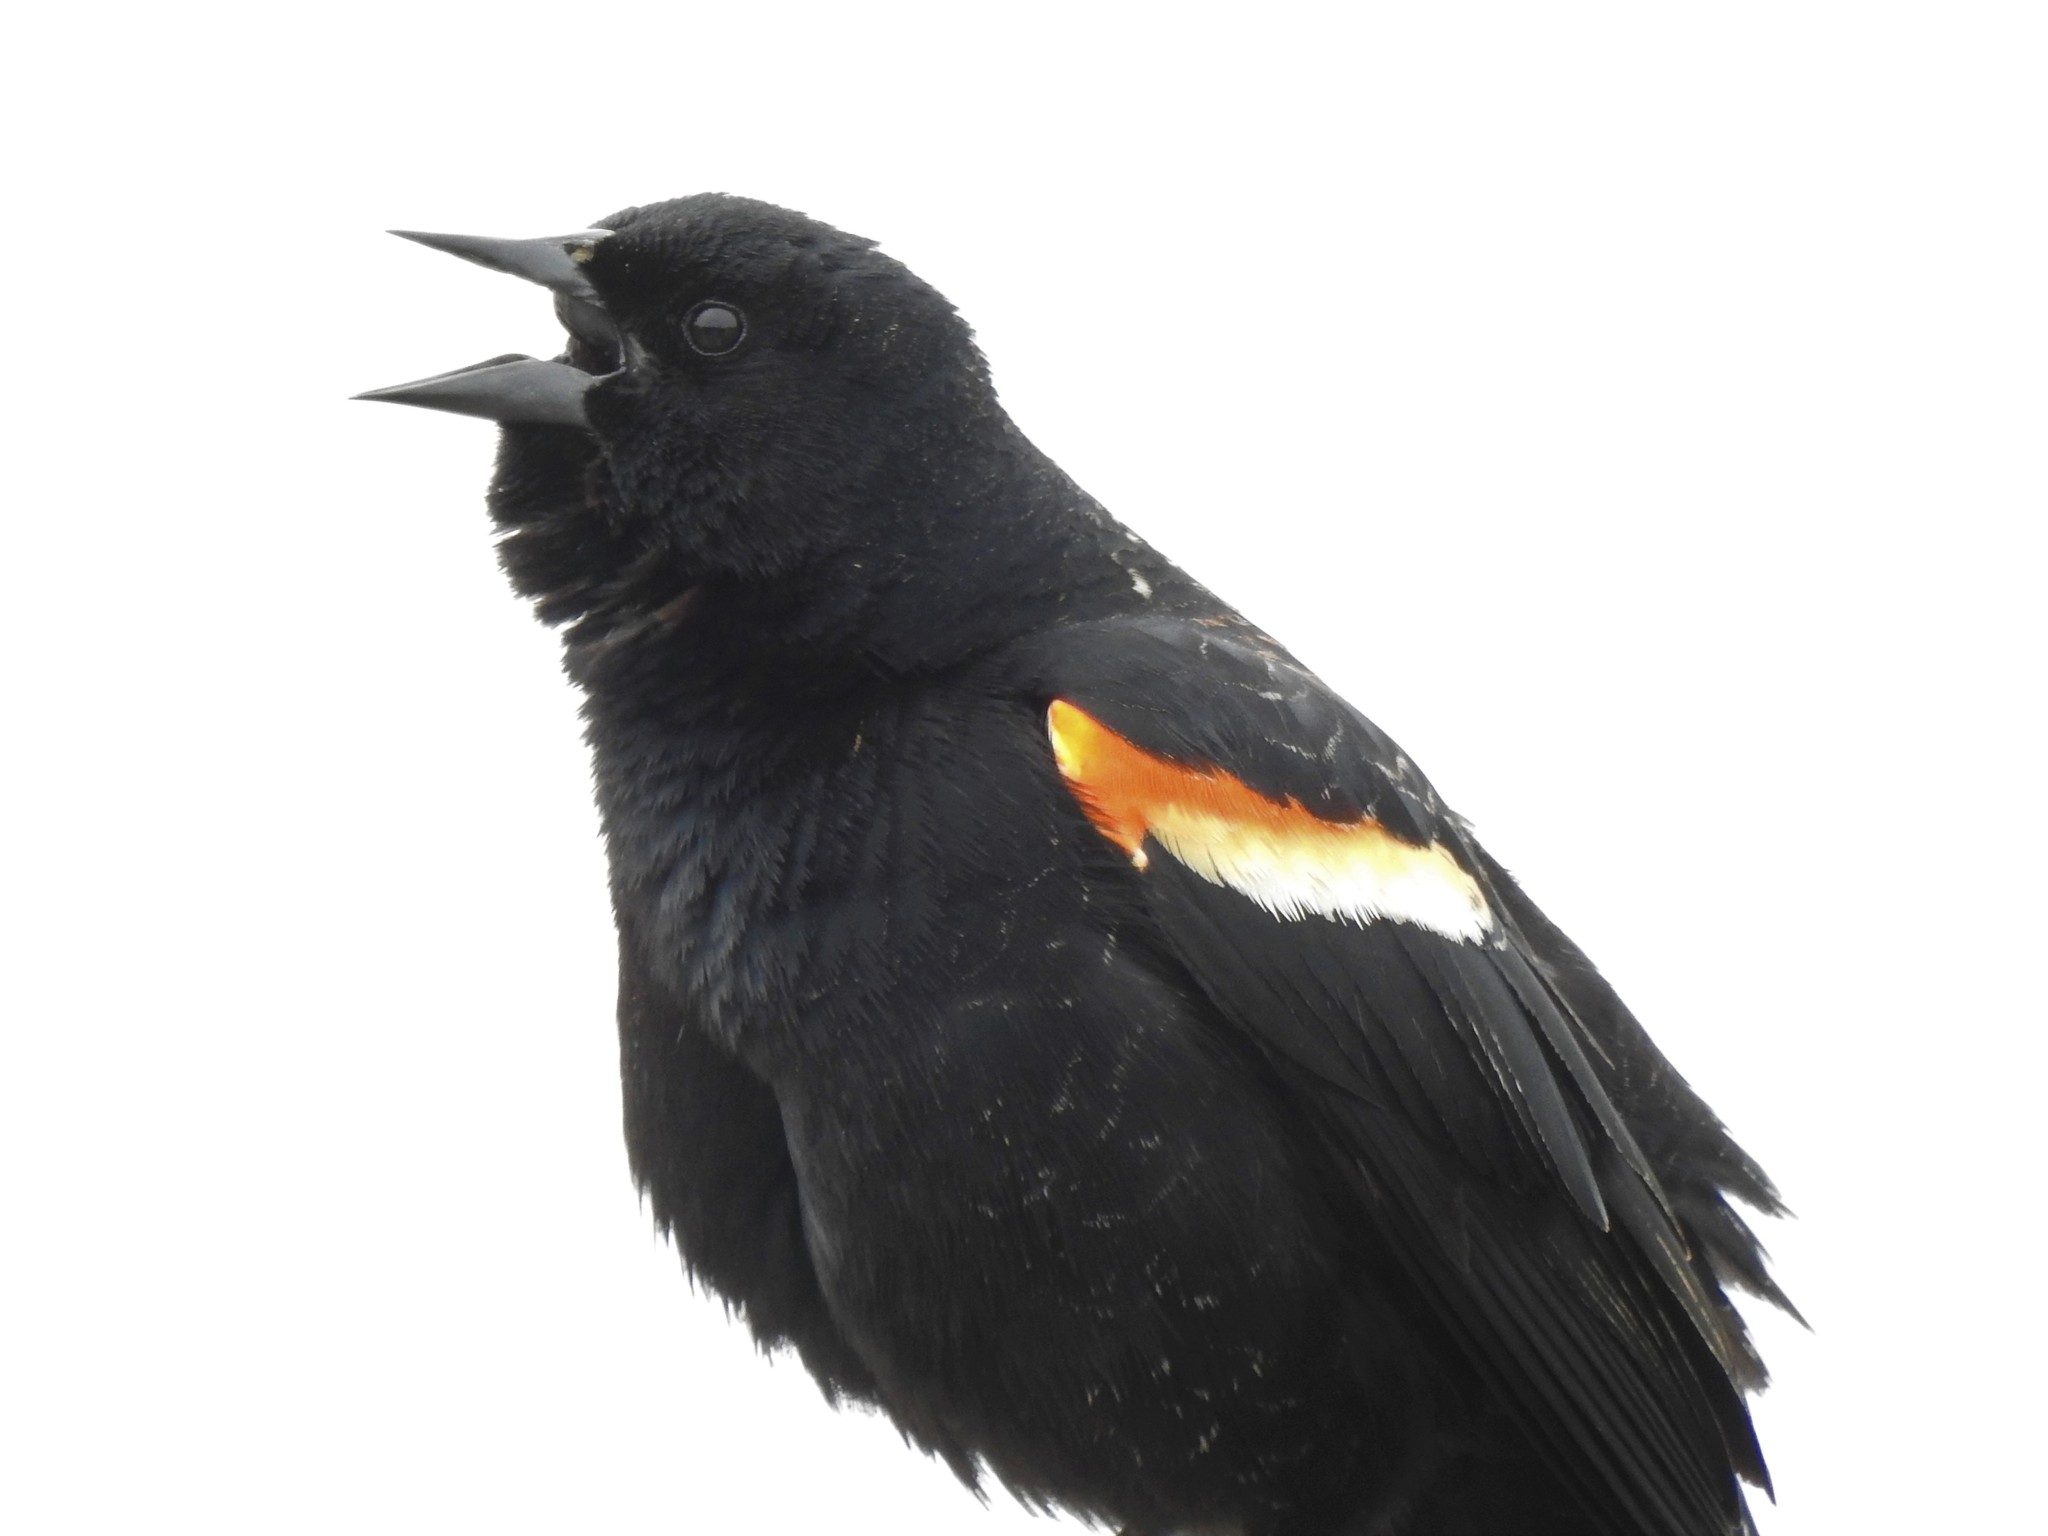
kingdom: Animalia
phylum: Chordata
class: Aves
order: Passeriformes
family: Icteridae
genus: Agelaius
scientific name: Agelaius phoeniceus
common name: Red-winged blackbird
